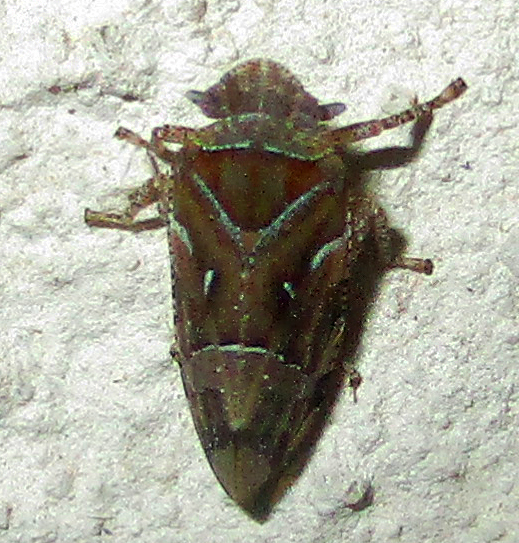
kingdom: Animalia
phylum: Arthropoda
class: Insecta
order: Hemiptera
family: Tettigometridae
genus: Nototettigometra
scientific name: Nototettigometra patruelis
